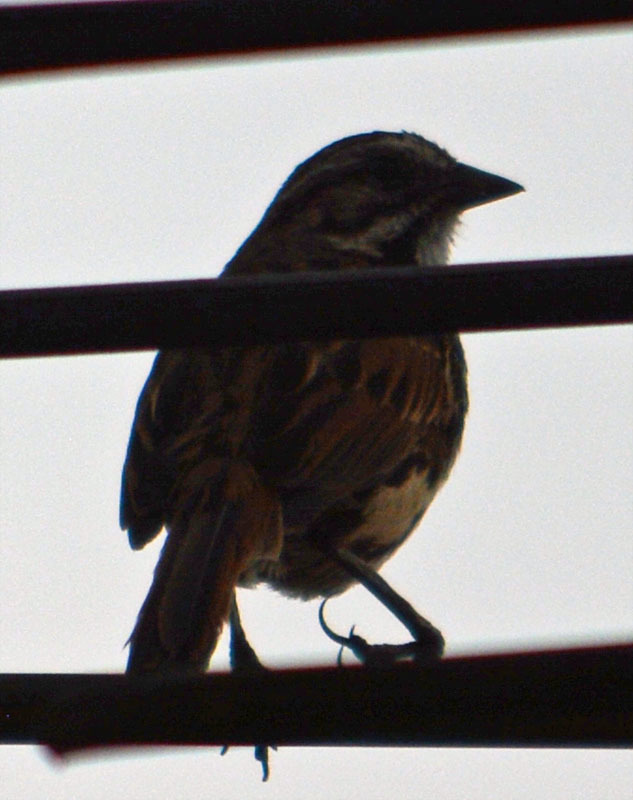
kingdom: Animalia
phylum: Chordata
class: Aves
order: Passeriformes
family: Passerellidae
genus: Melospiza
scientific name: Melospiza melodia
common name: Song sparrow
